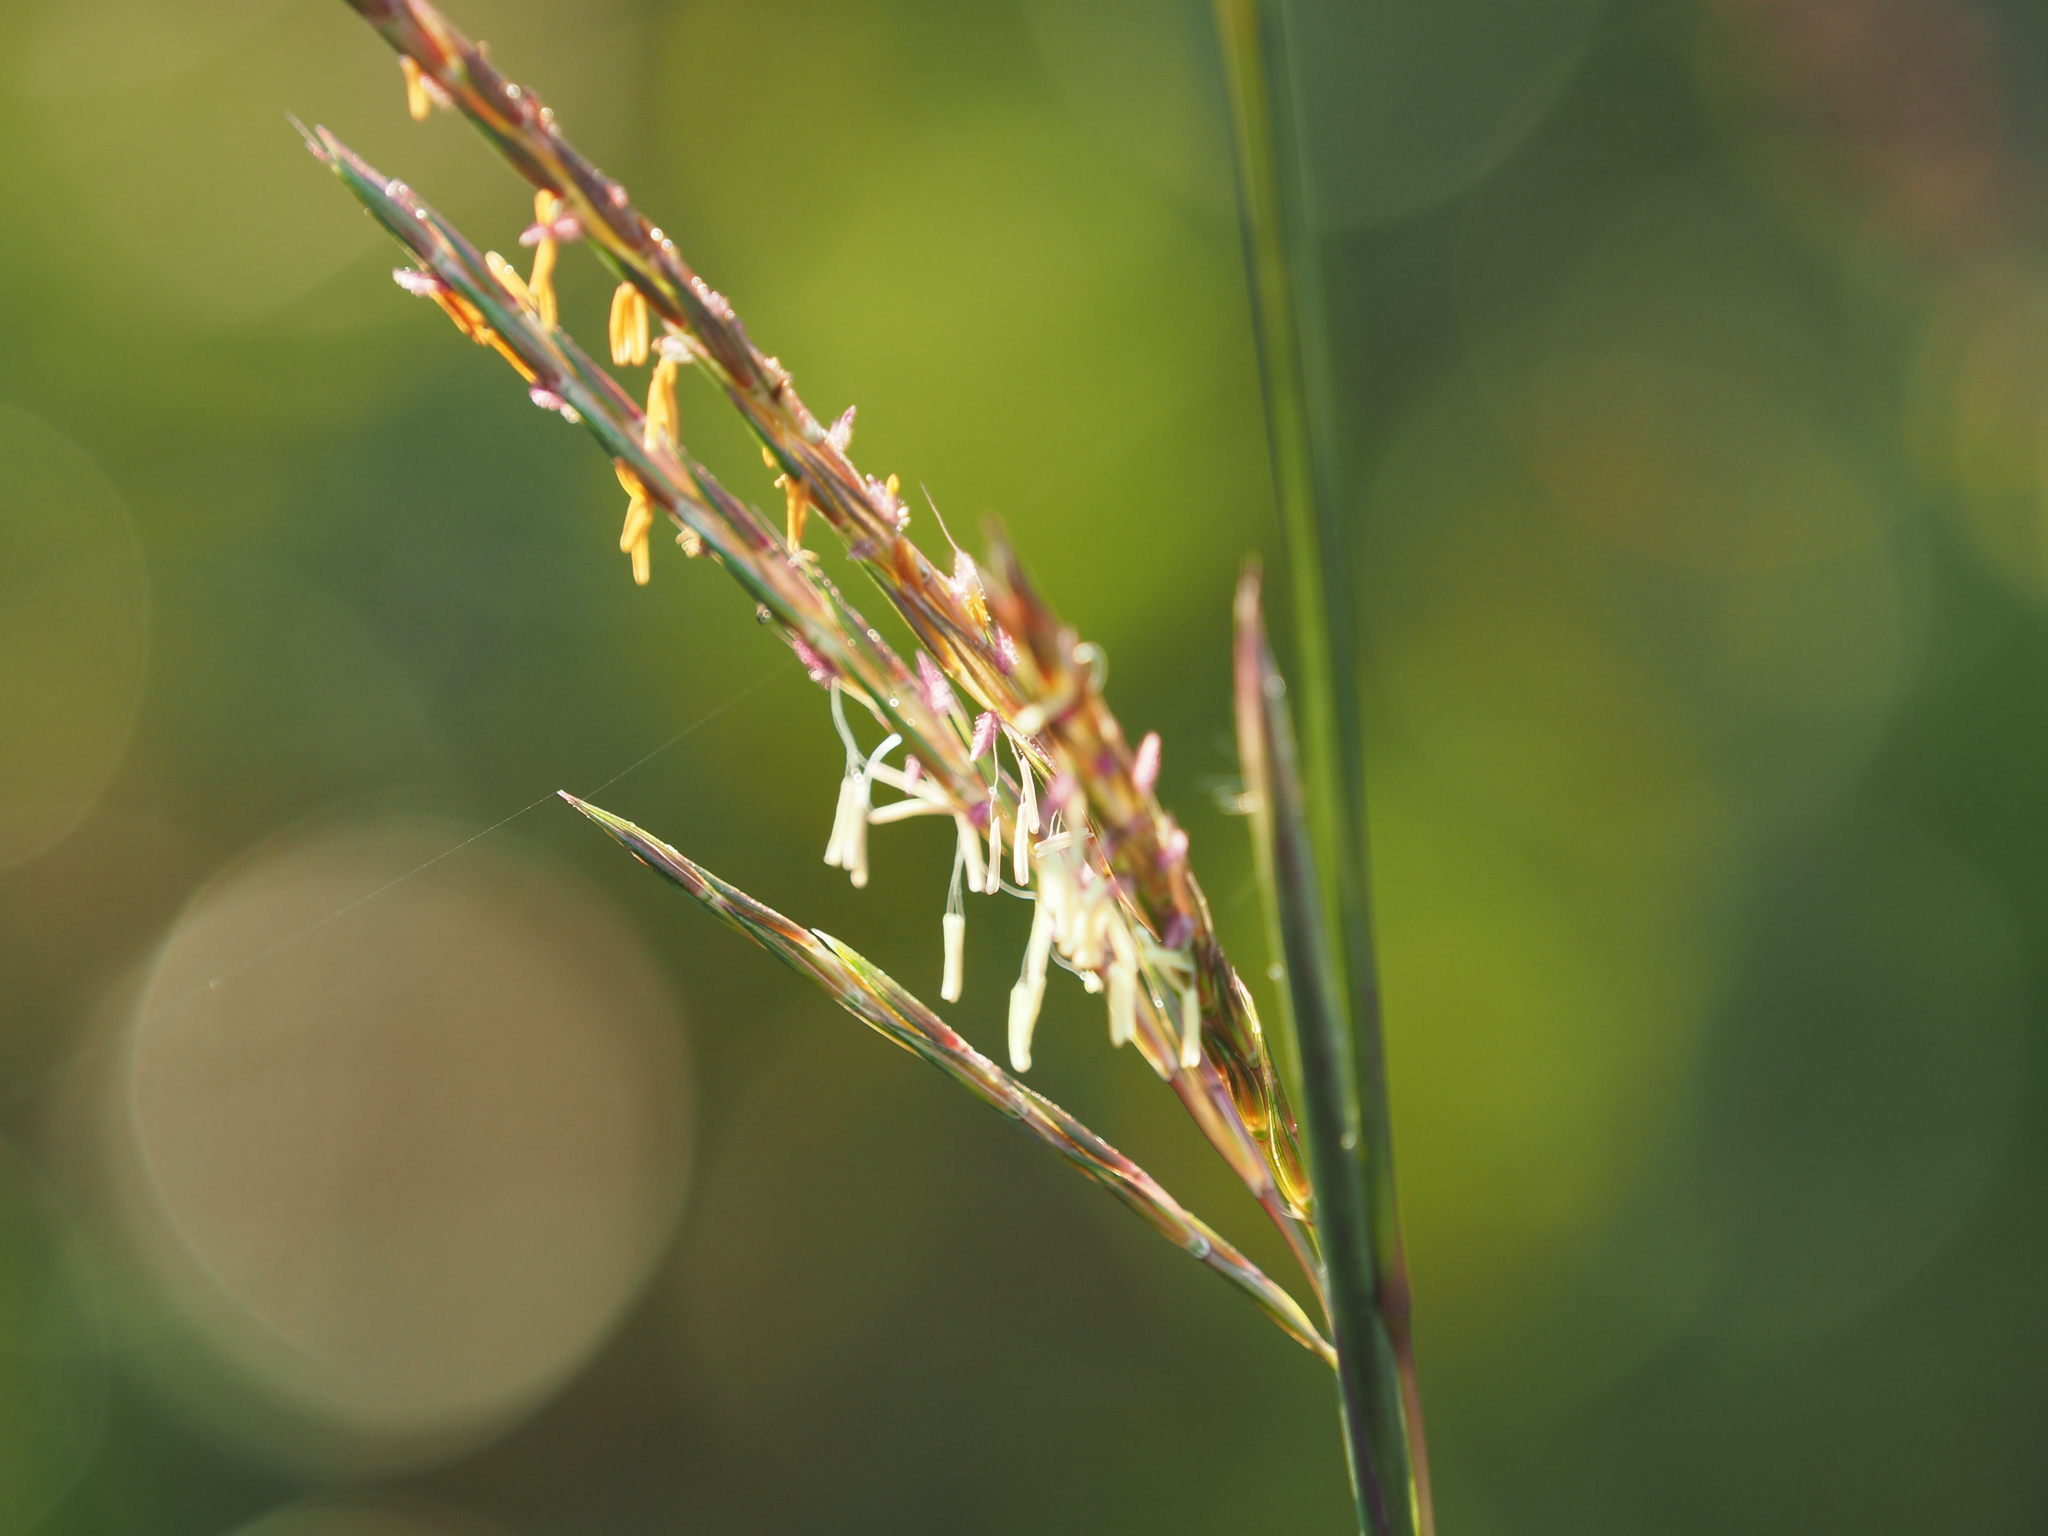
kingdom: Plantae
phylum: Tracheophyta
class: Liliopsida
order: Poales
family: Poaceae
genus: Andropogon
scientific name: Andropogon gerardi
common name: Big bluestem
